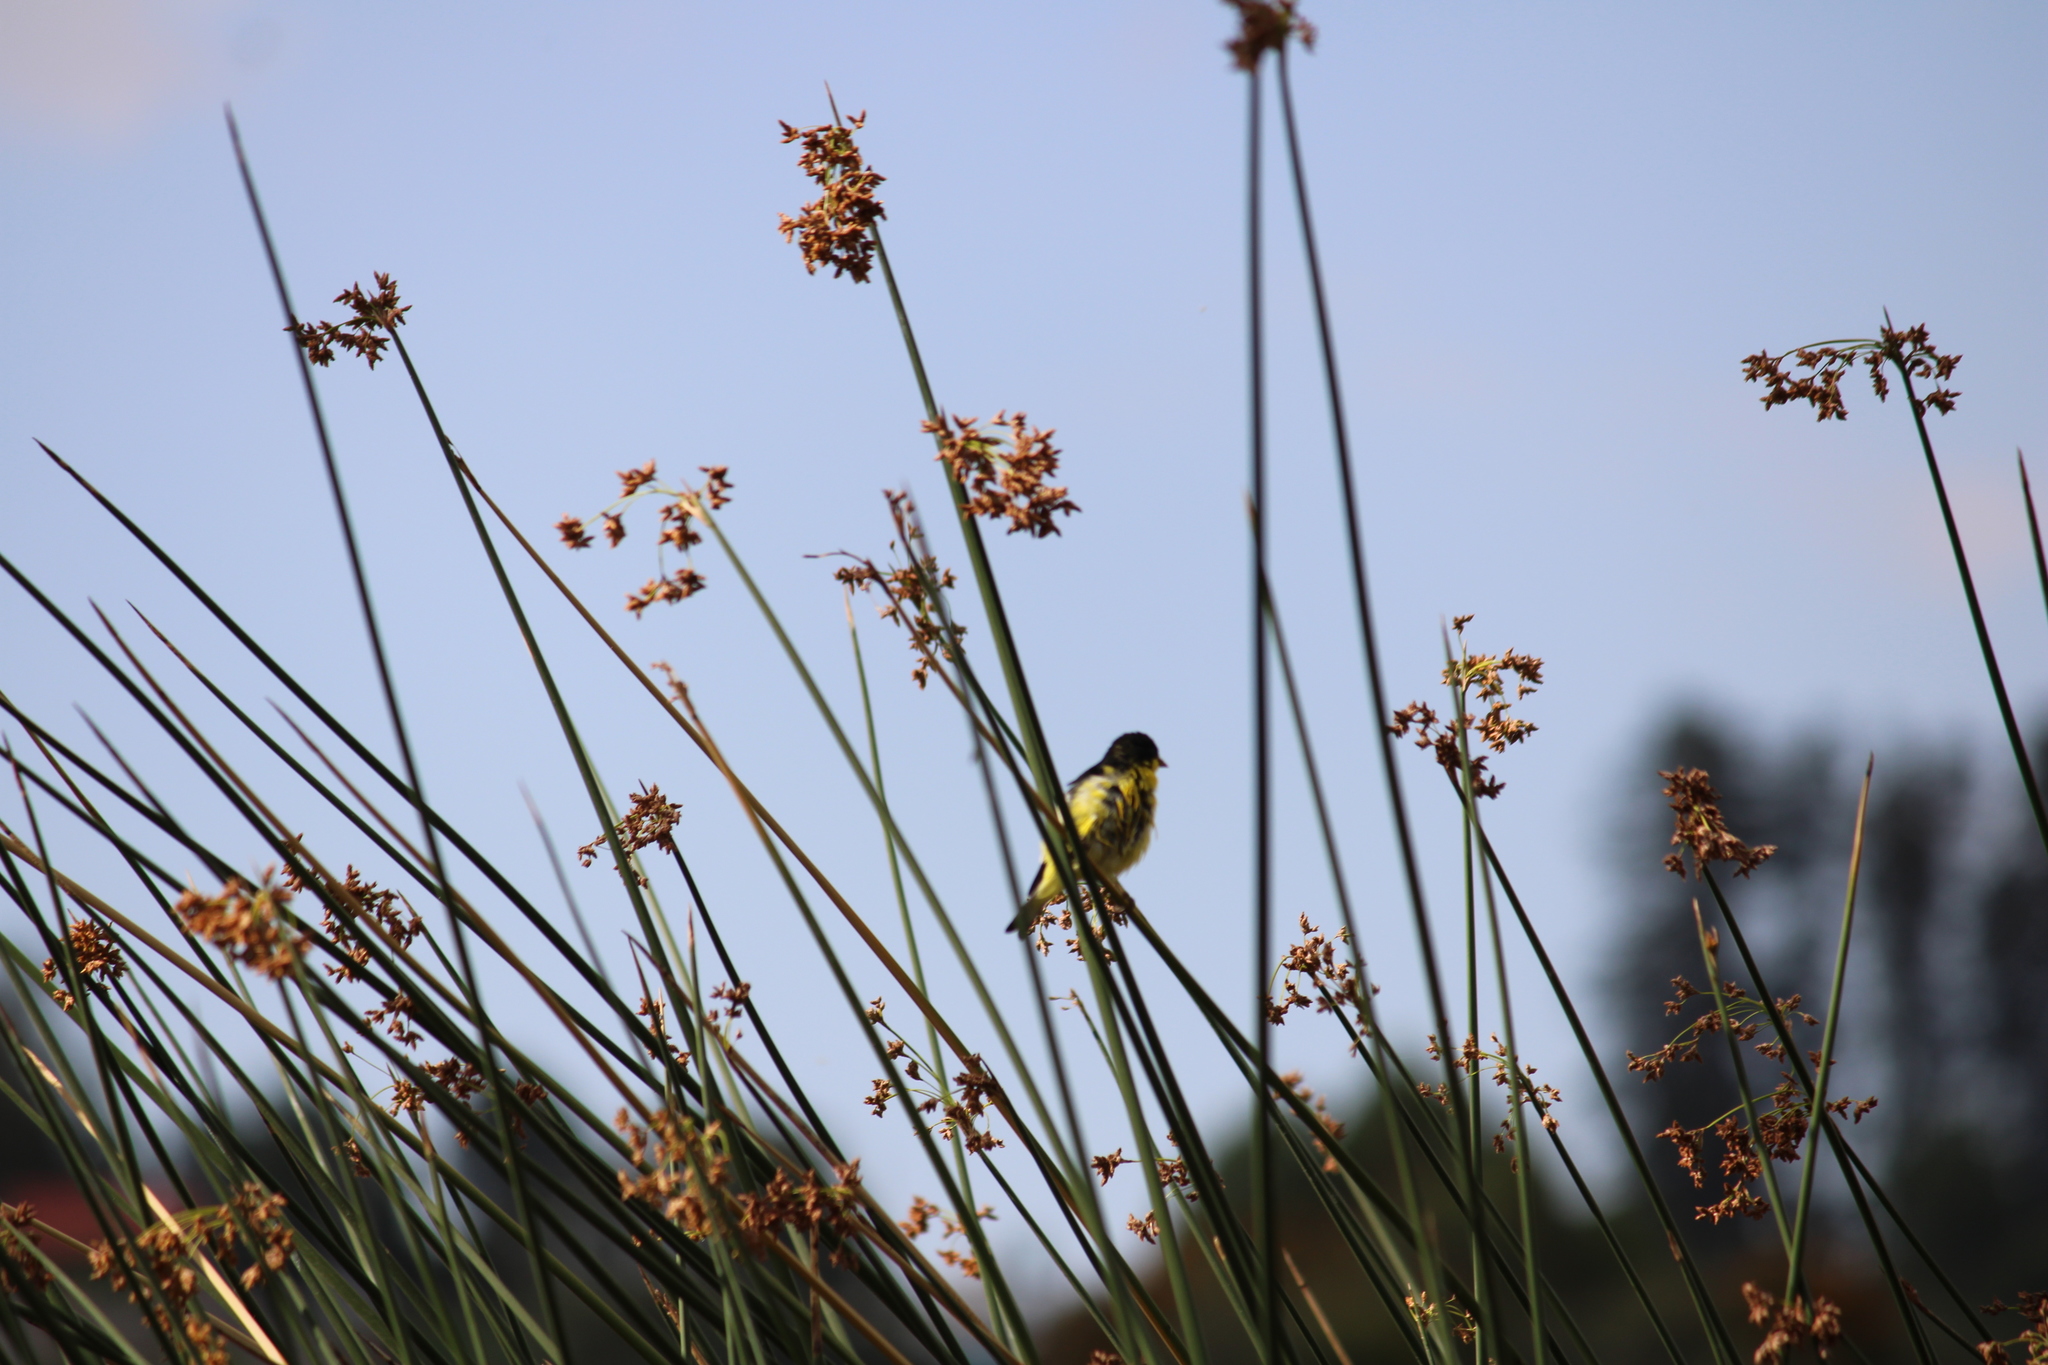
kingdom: Animalia
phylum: Chordata
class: Aves
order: Passeriformes
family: Fringillidae
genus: Spinus
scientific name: Spinus psaltria
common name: Lesser goldfinch
